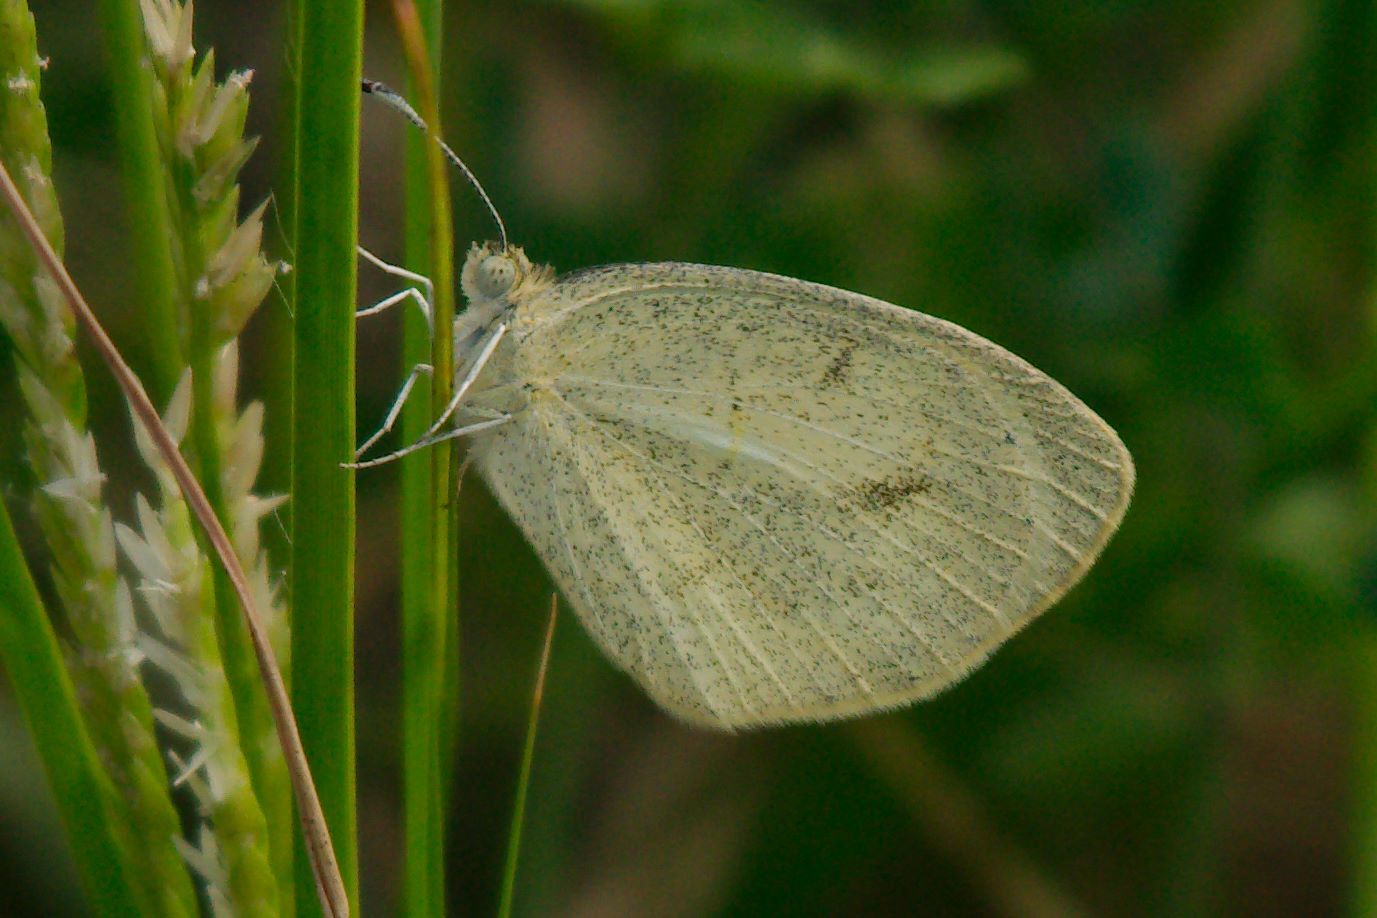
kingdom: Animalia
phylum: Arthropoda
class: Insecta
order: Lepidoptera
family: Pieridae
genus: Eurema
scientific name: Eurema daira
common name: Barred sulphur
